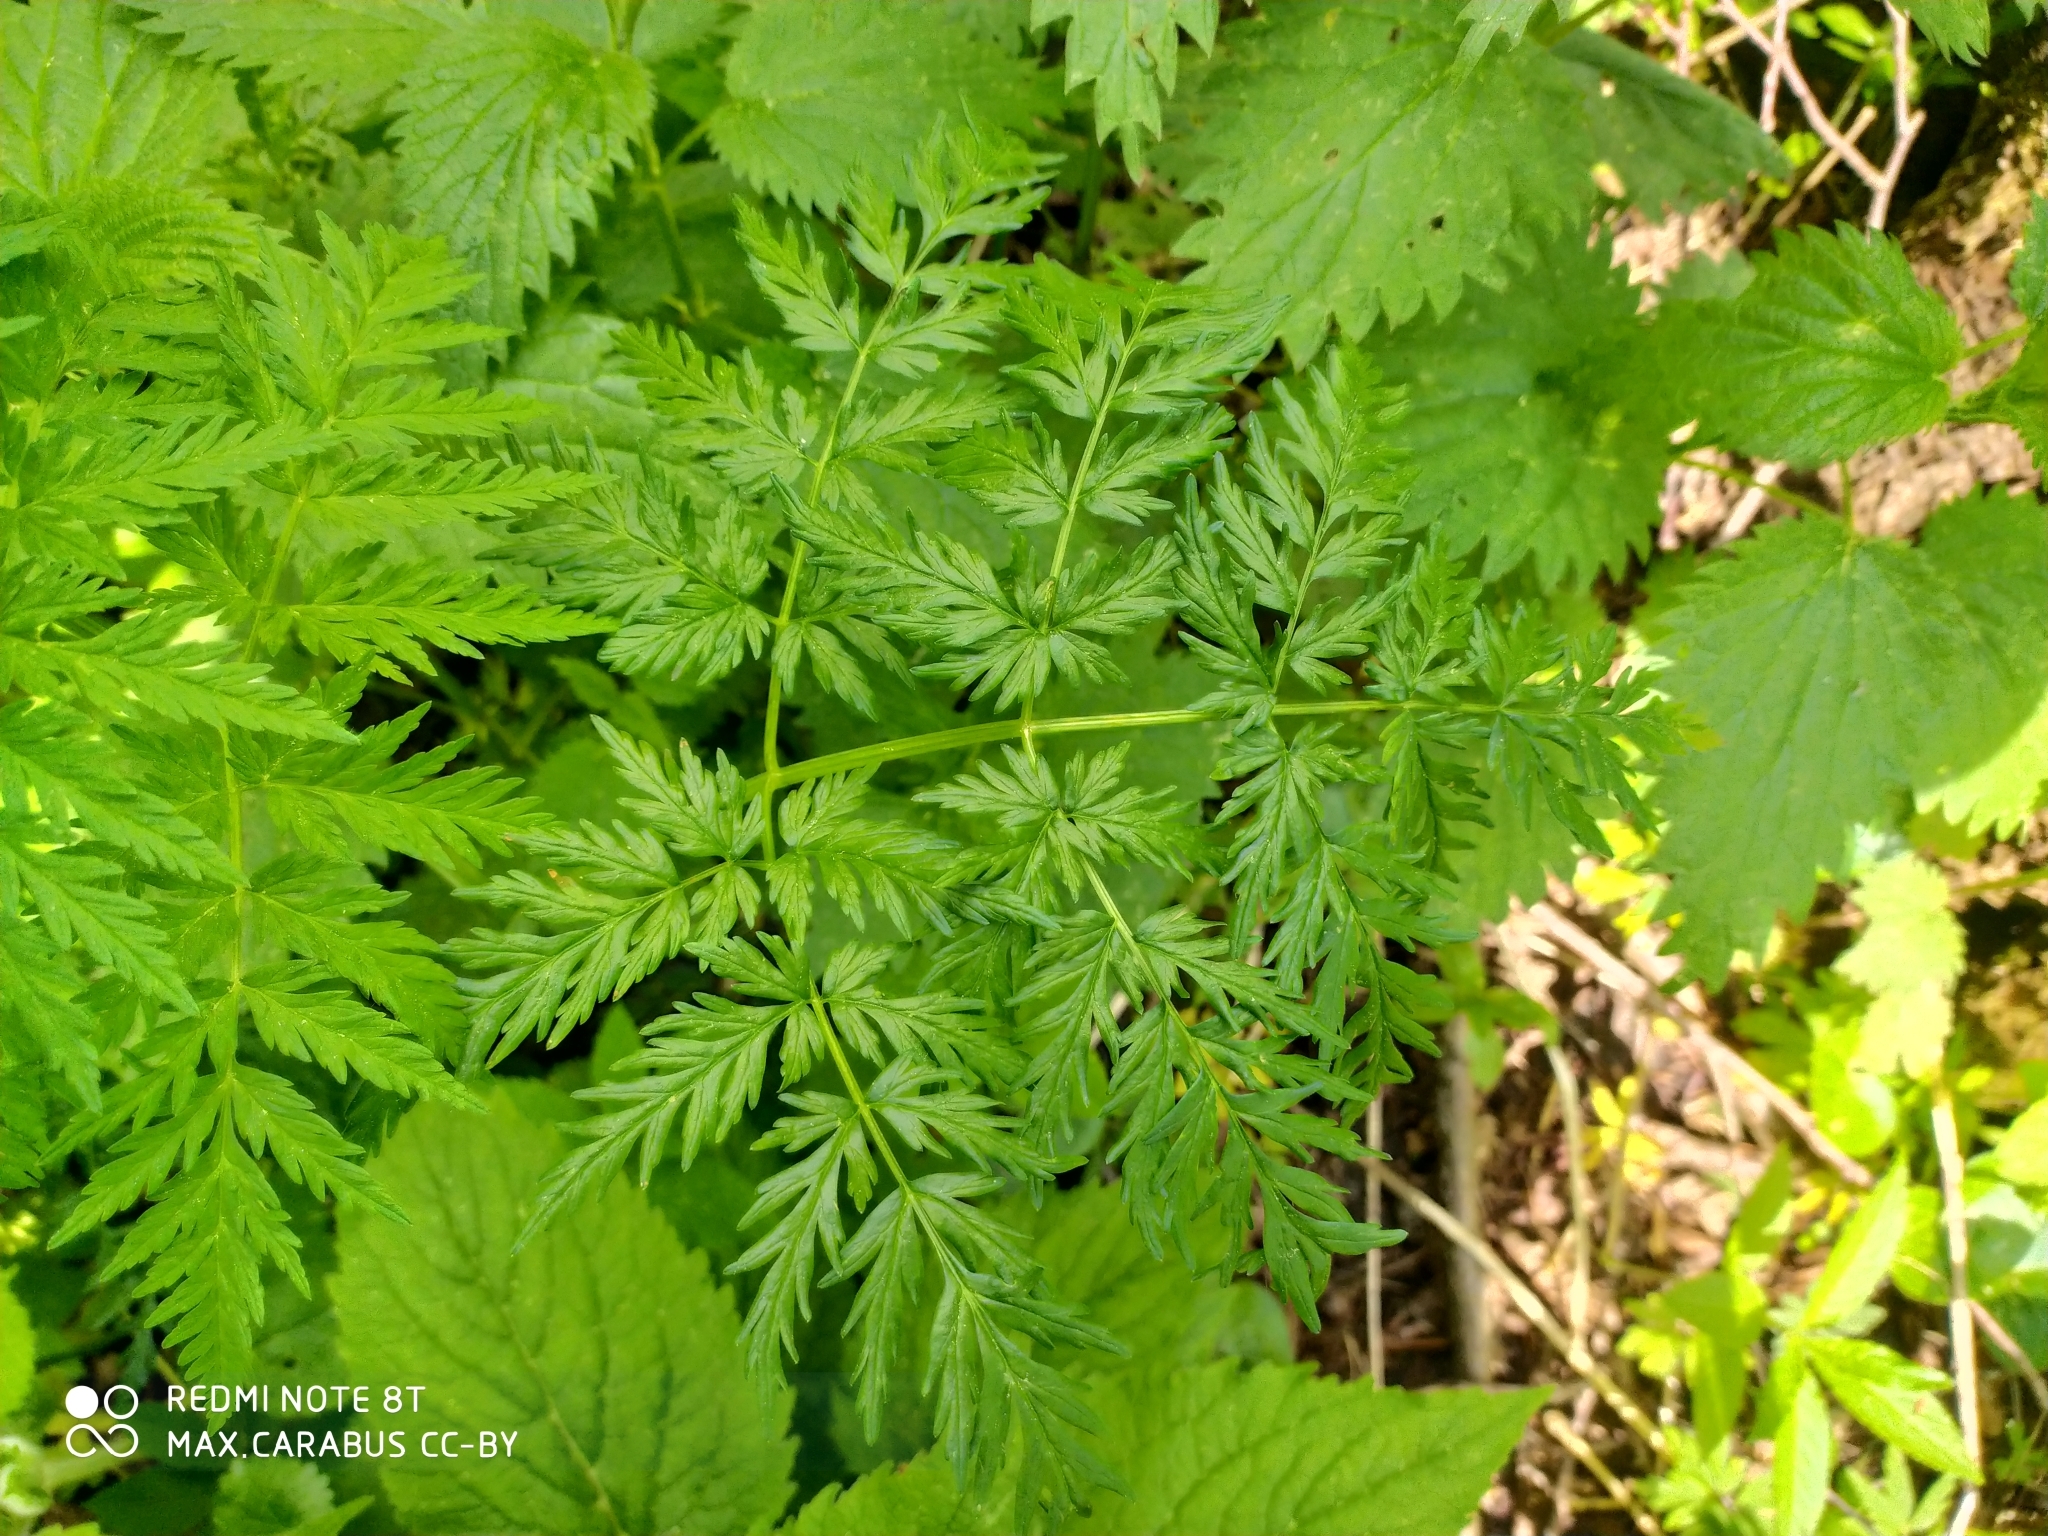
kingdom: Plantae
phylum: Tracheophyta
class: Magnoliopsida
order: Apiales
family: Apiaceae
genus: Anthriscus
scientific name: Anthriscus sylvestris
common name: Cow parsley
